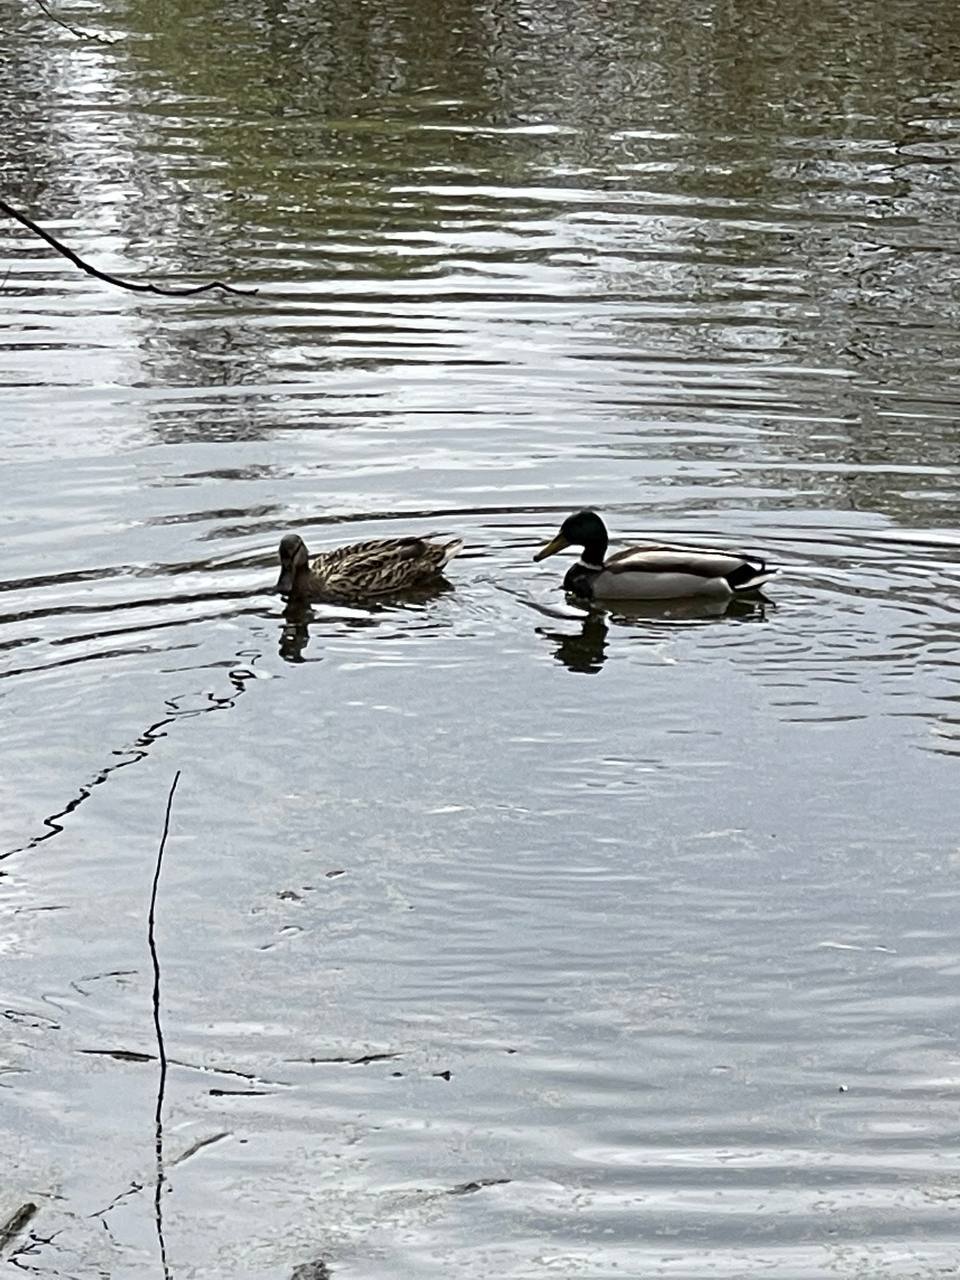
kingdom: Animalia
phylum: Chordata
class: Aves
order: Anseriformes
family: Anatidae
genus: Anas
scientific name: Anas platyrhynchos
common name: Mallard
